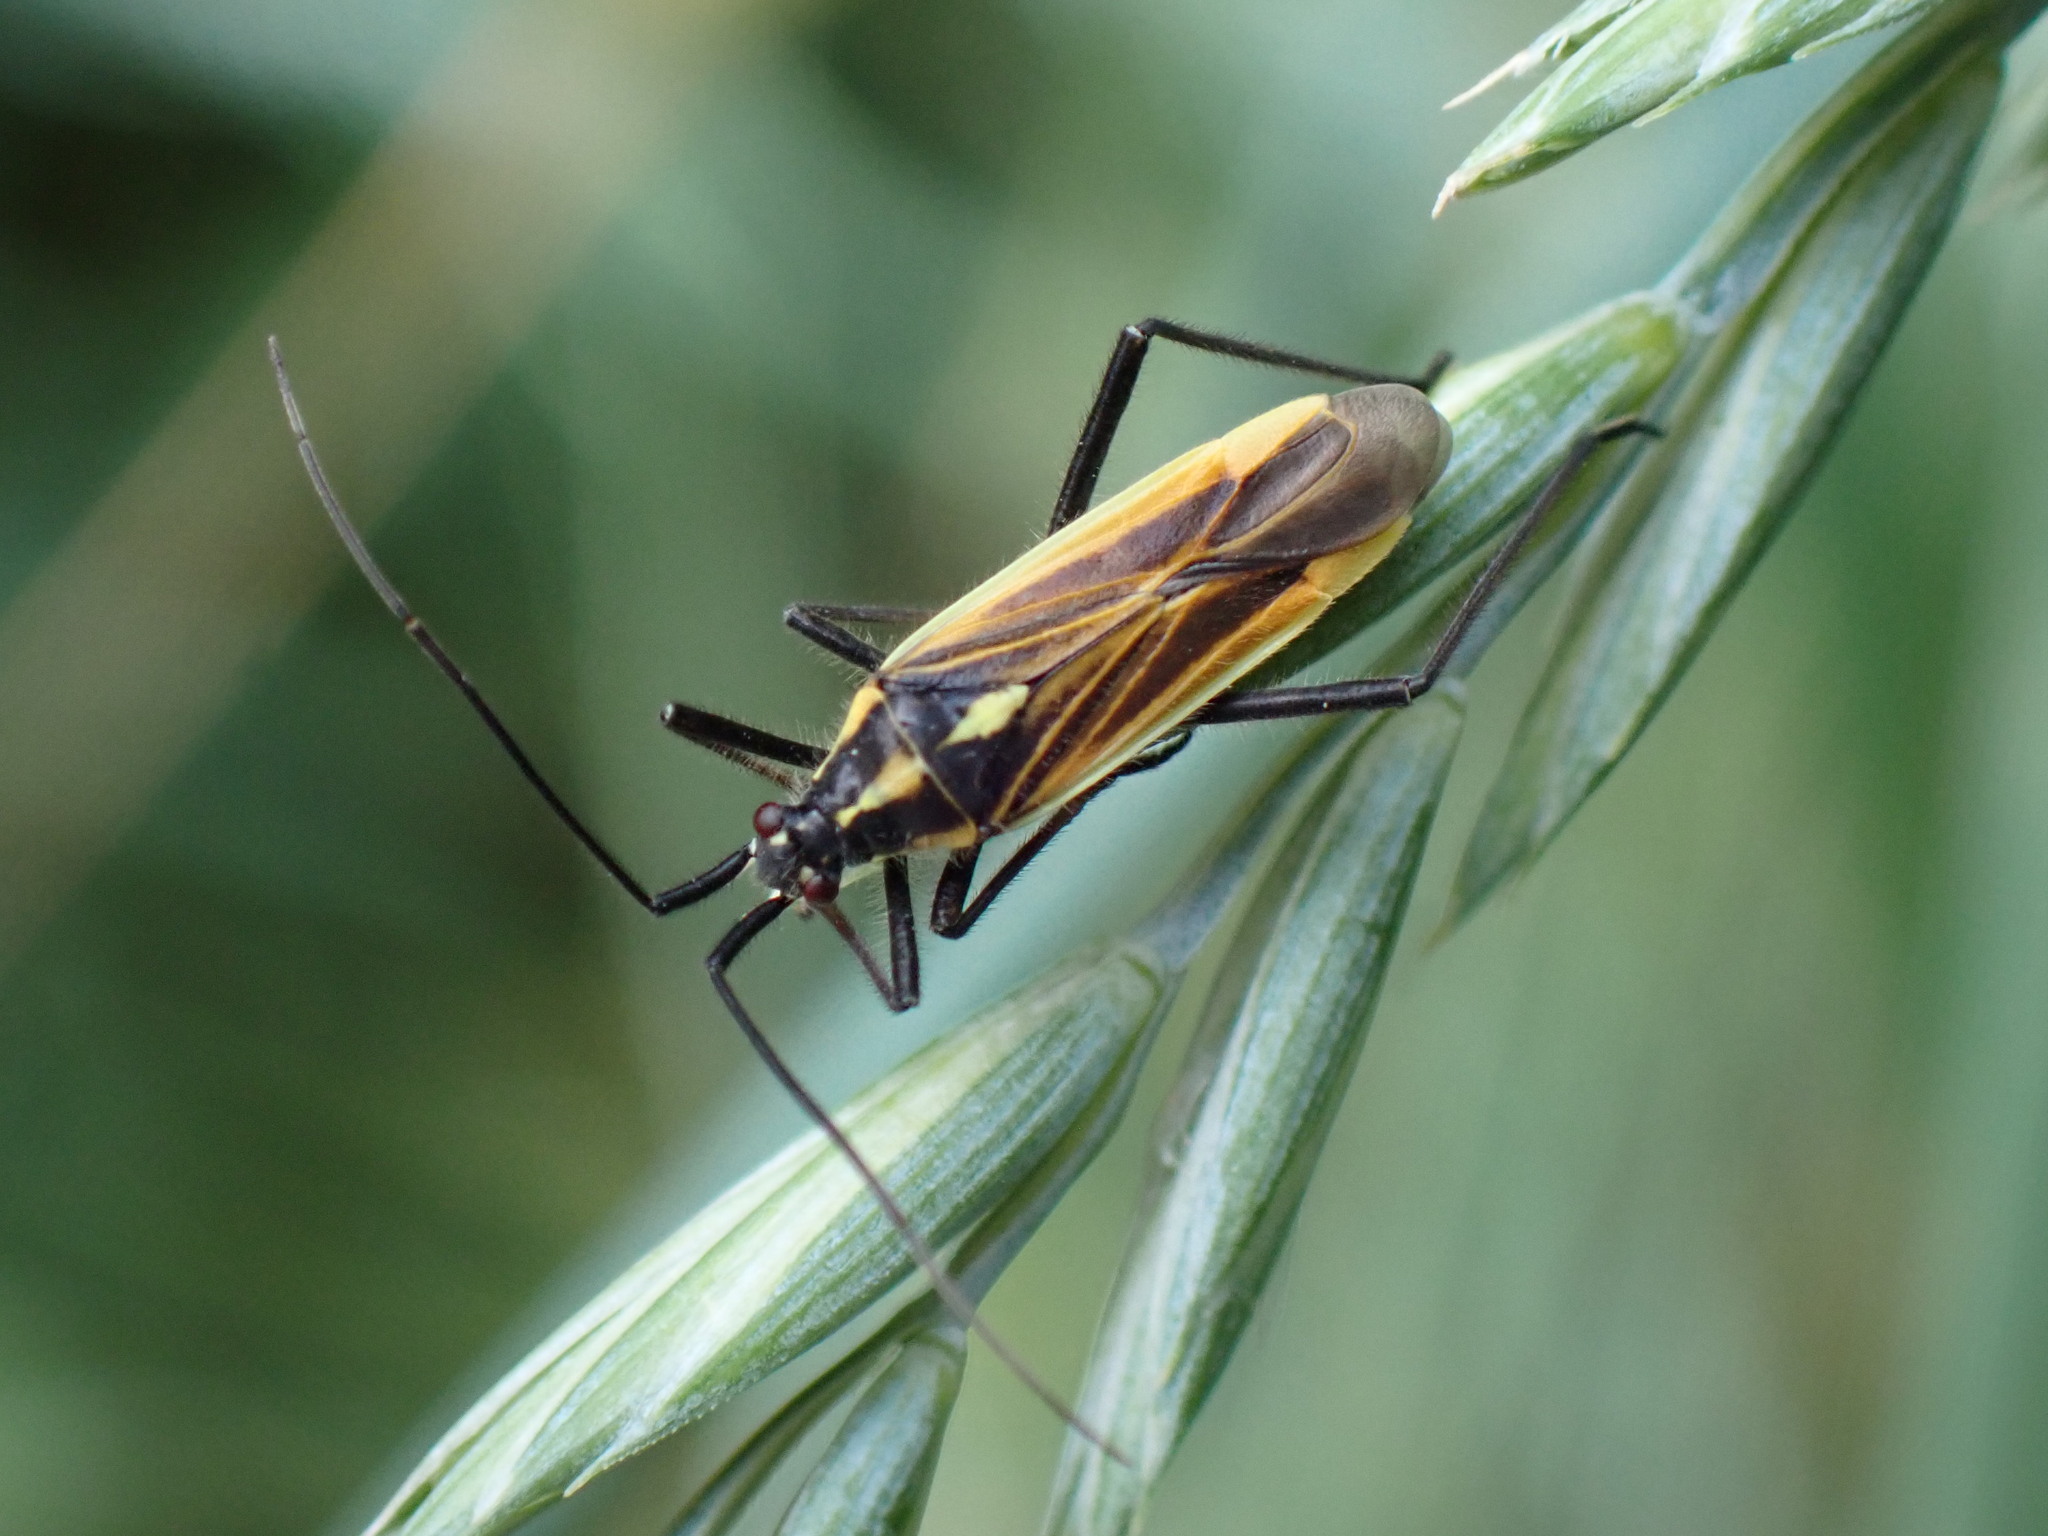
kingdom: Animalia
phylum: Arthropoda
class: Insecta
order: Hemiptera
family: Miridae
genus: Leptopterna
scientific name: Leptopterna dolabrata
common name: Meadow plant bug
